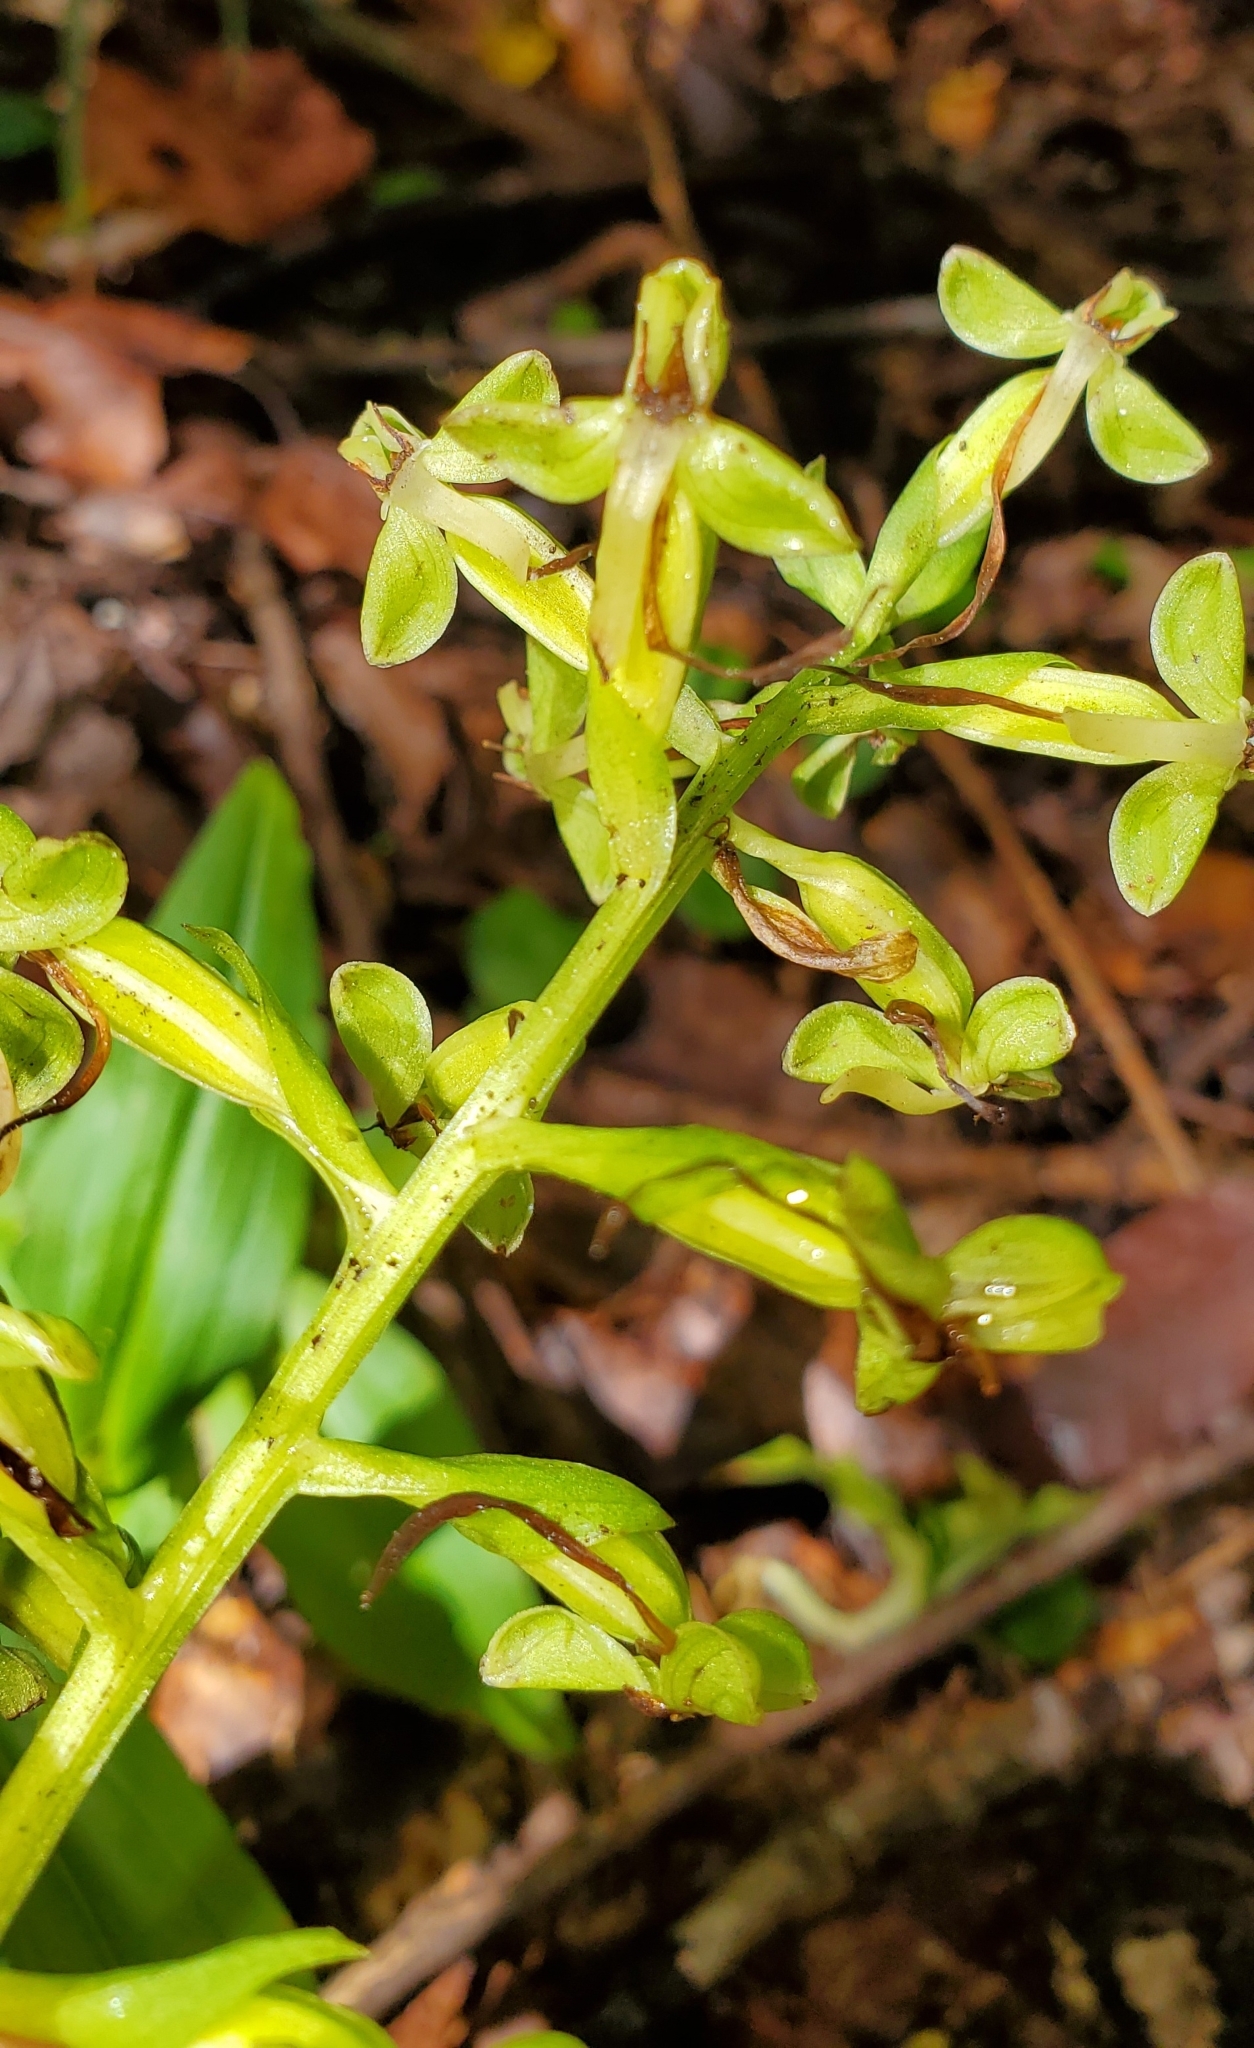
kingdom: Plantae
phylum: Tracheophyta
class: Liliopsida
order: Asparagales
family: Orchidaceae
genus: Habenaria
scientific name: Habenaria floribunda
